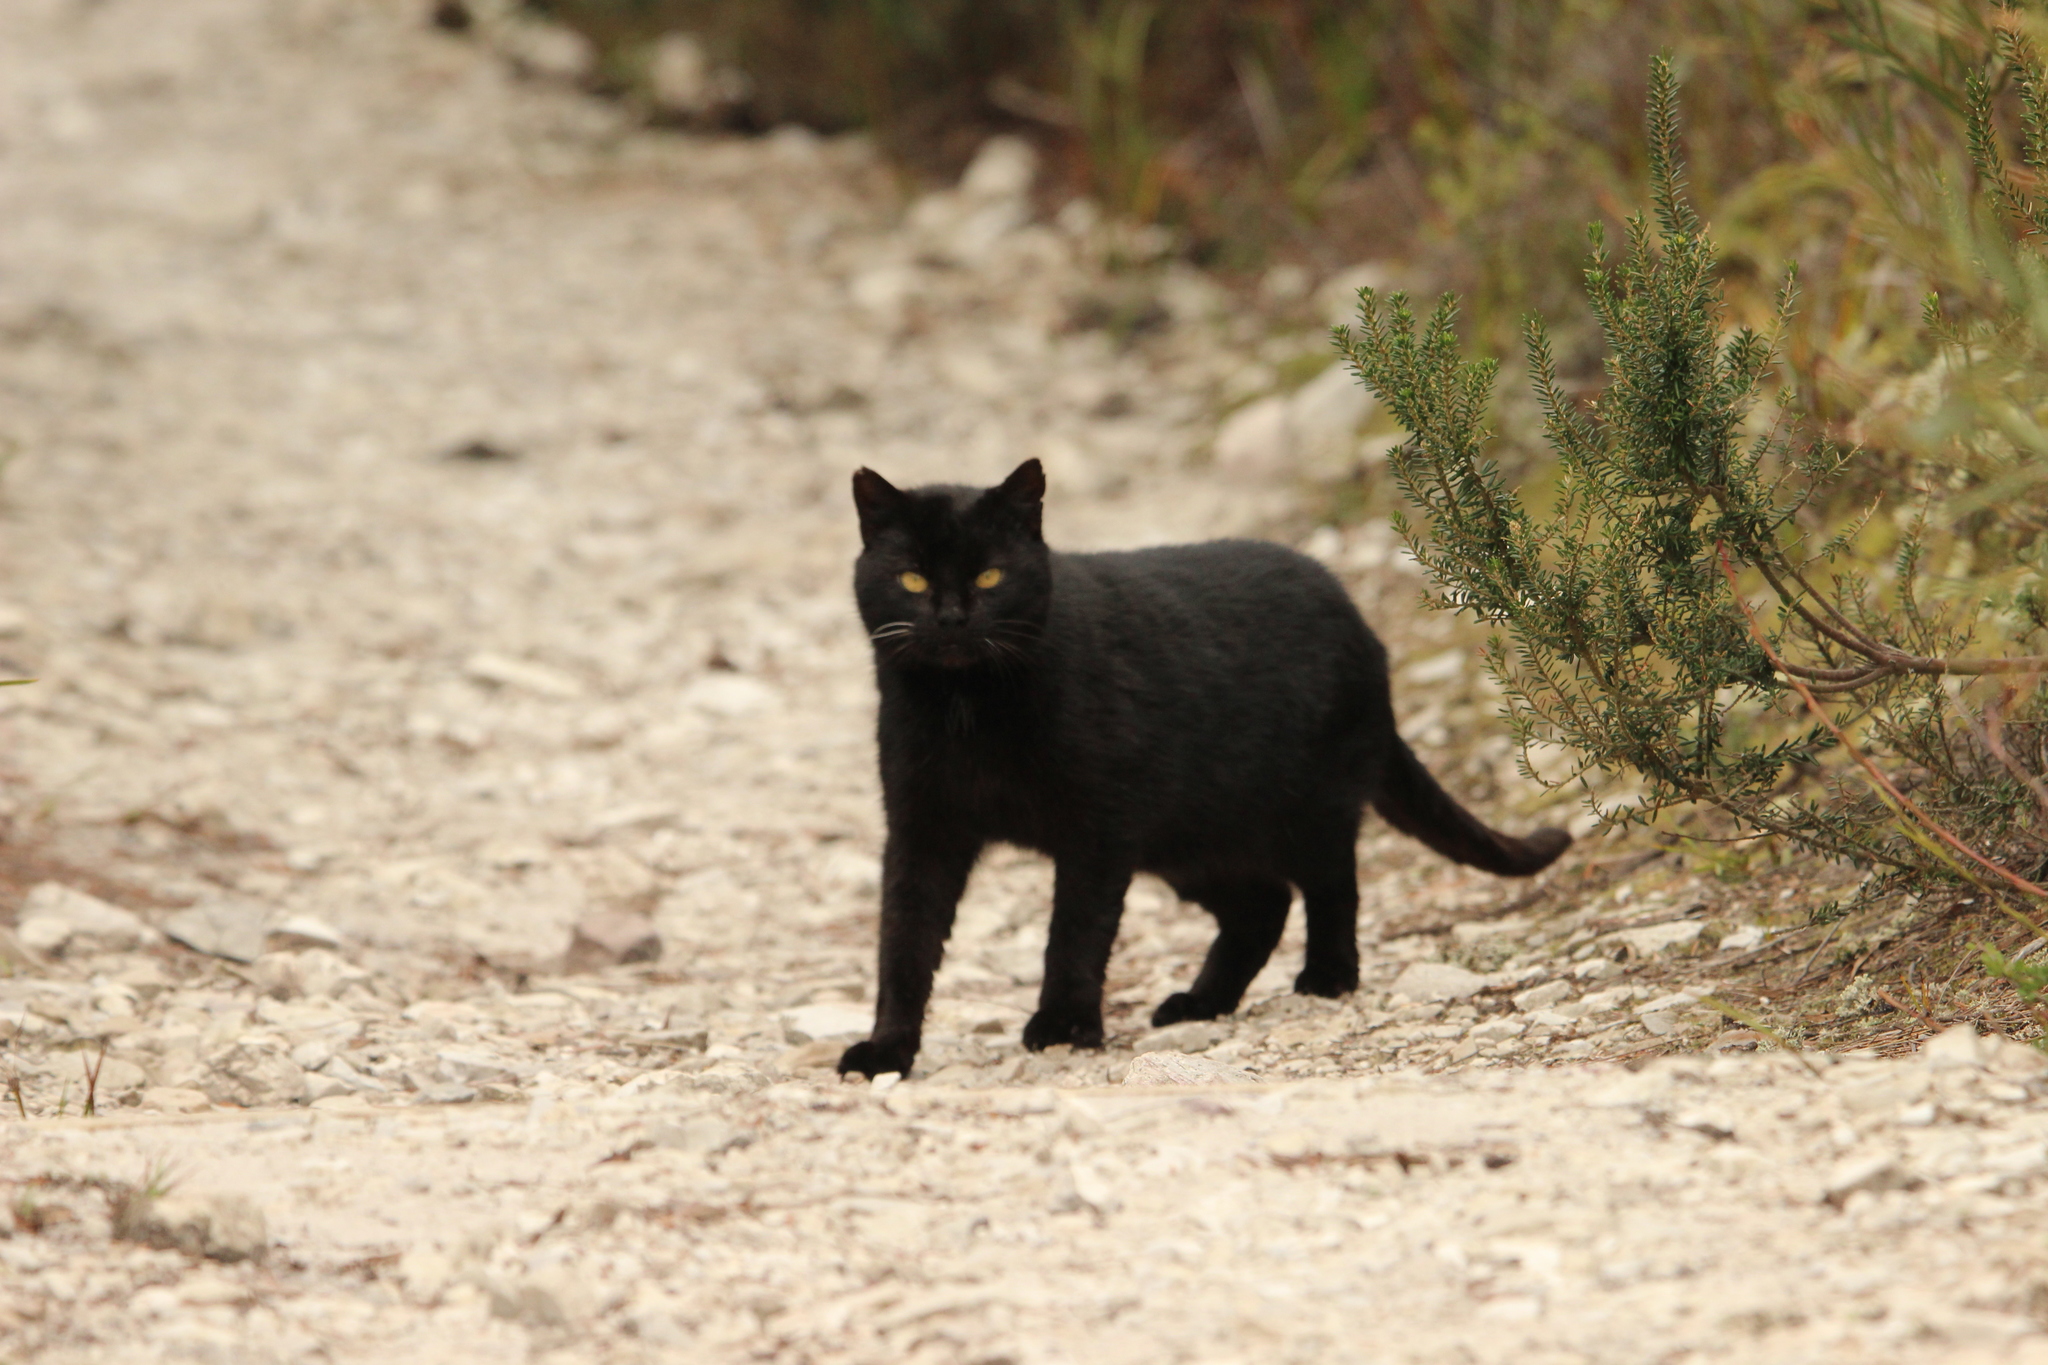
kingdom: Animalia
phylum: Chordata
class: Mammalia
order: Carnivora
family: Felidae
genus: Felis
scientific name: Felis catus
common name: Domestic cat
